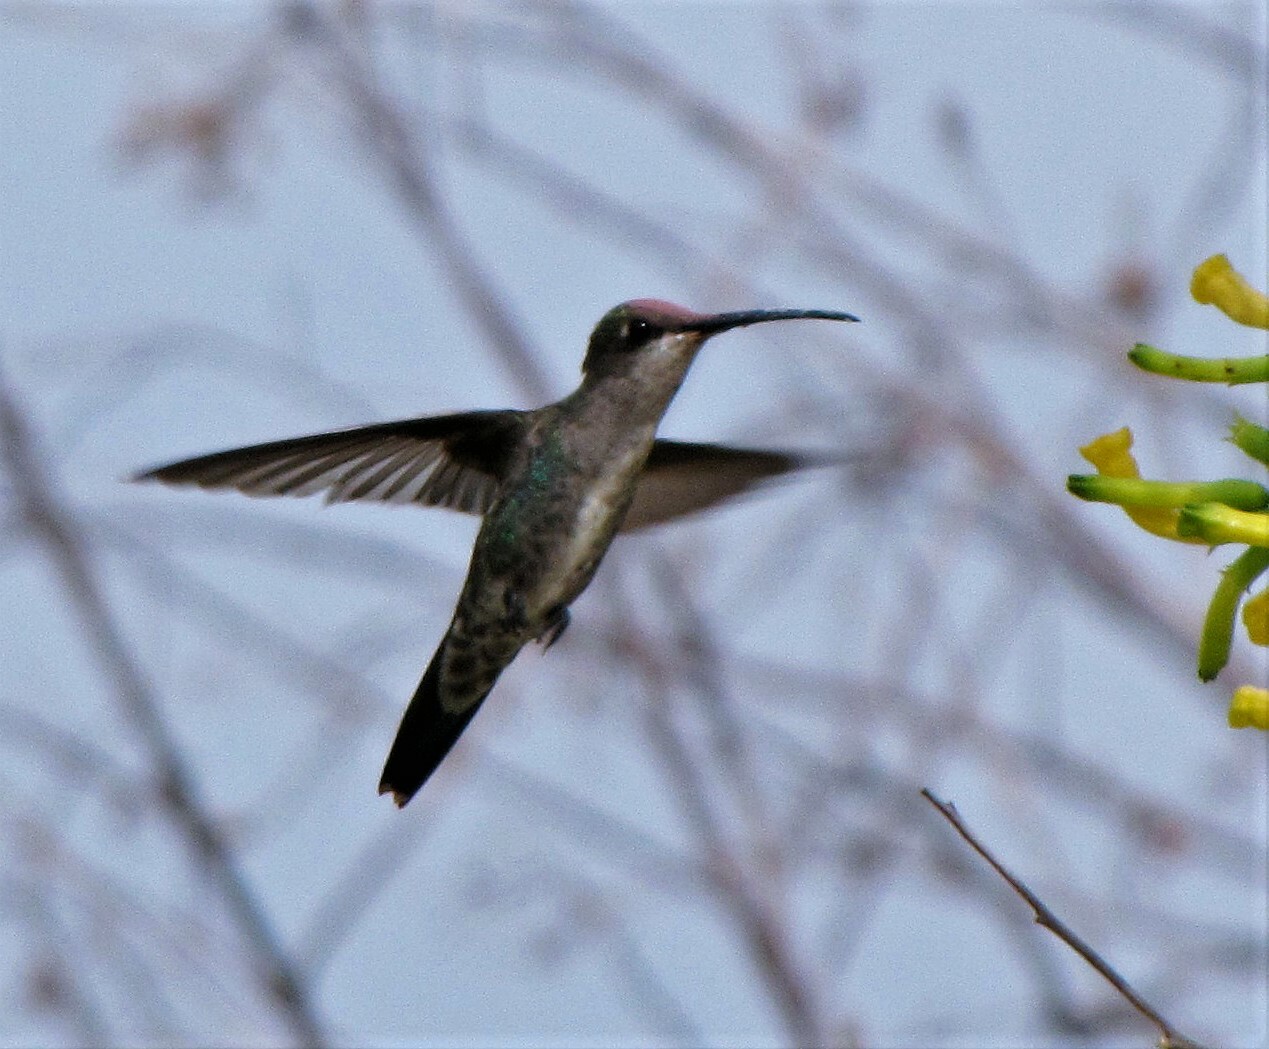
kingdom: Animalia
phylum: Chordata
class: Aves
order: Apodiformes
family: Trochilidae
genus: Heliomaster
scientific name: Heliomaster furcifer
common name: Blue-tufted starthroat
